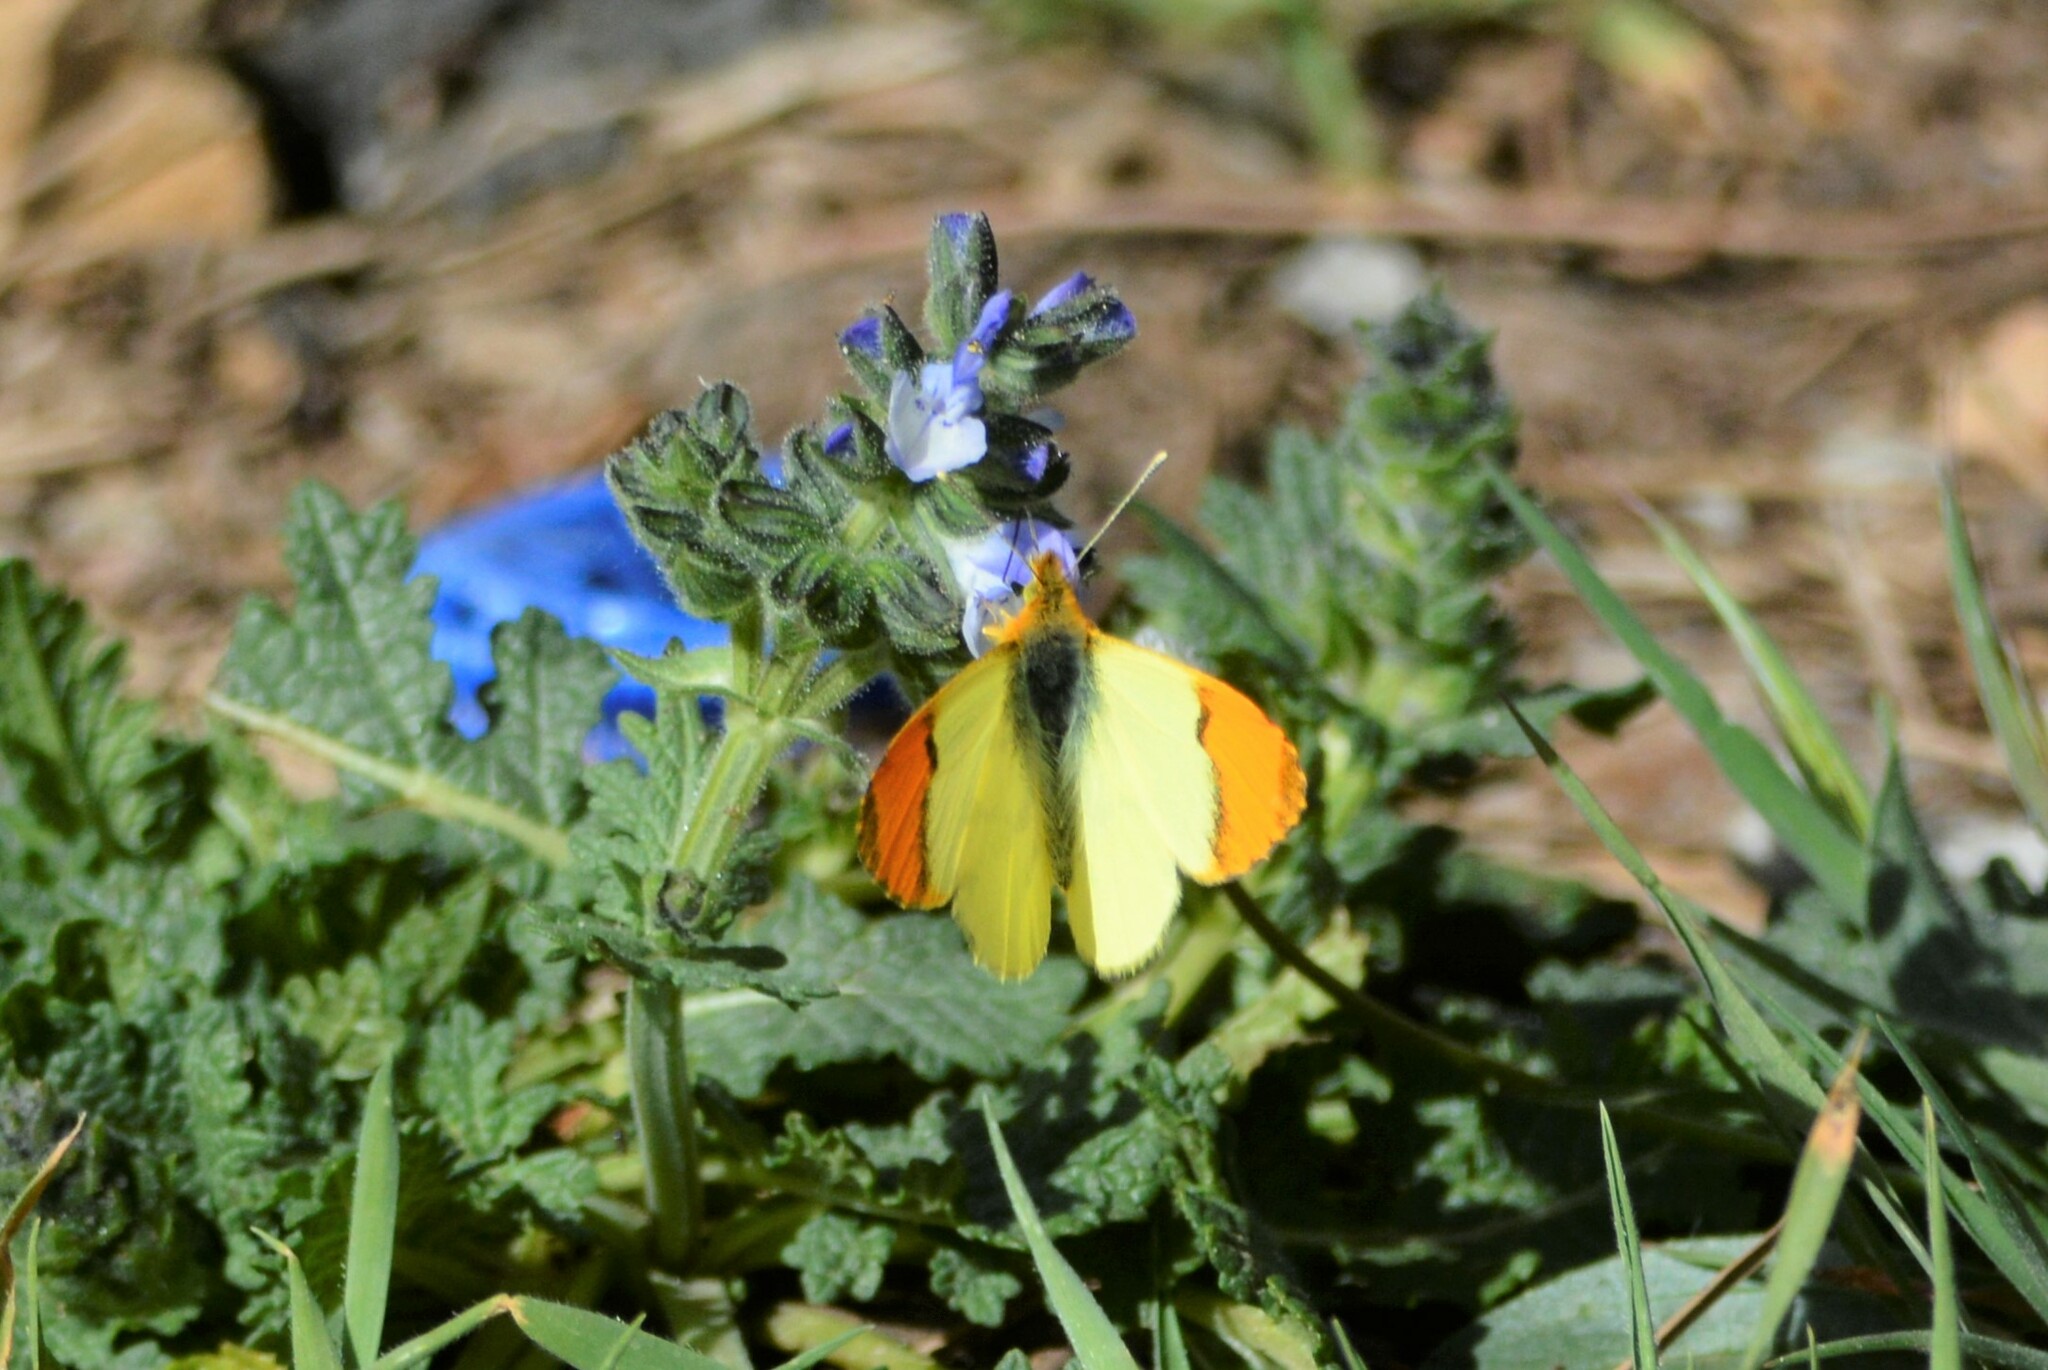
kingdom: Animalia
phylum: Arthropoda
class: Insecta
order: Lepidoptera
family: Pieridae
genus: Anthocharis
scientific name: Anthocharis belia
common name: Moroccan orange tip
